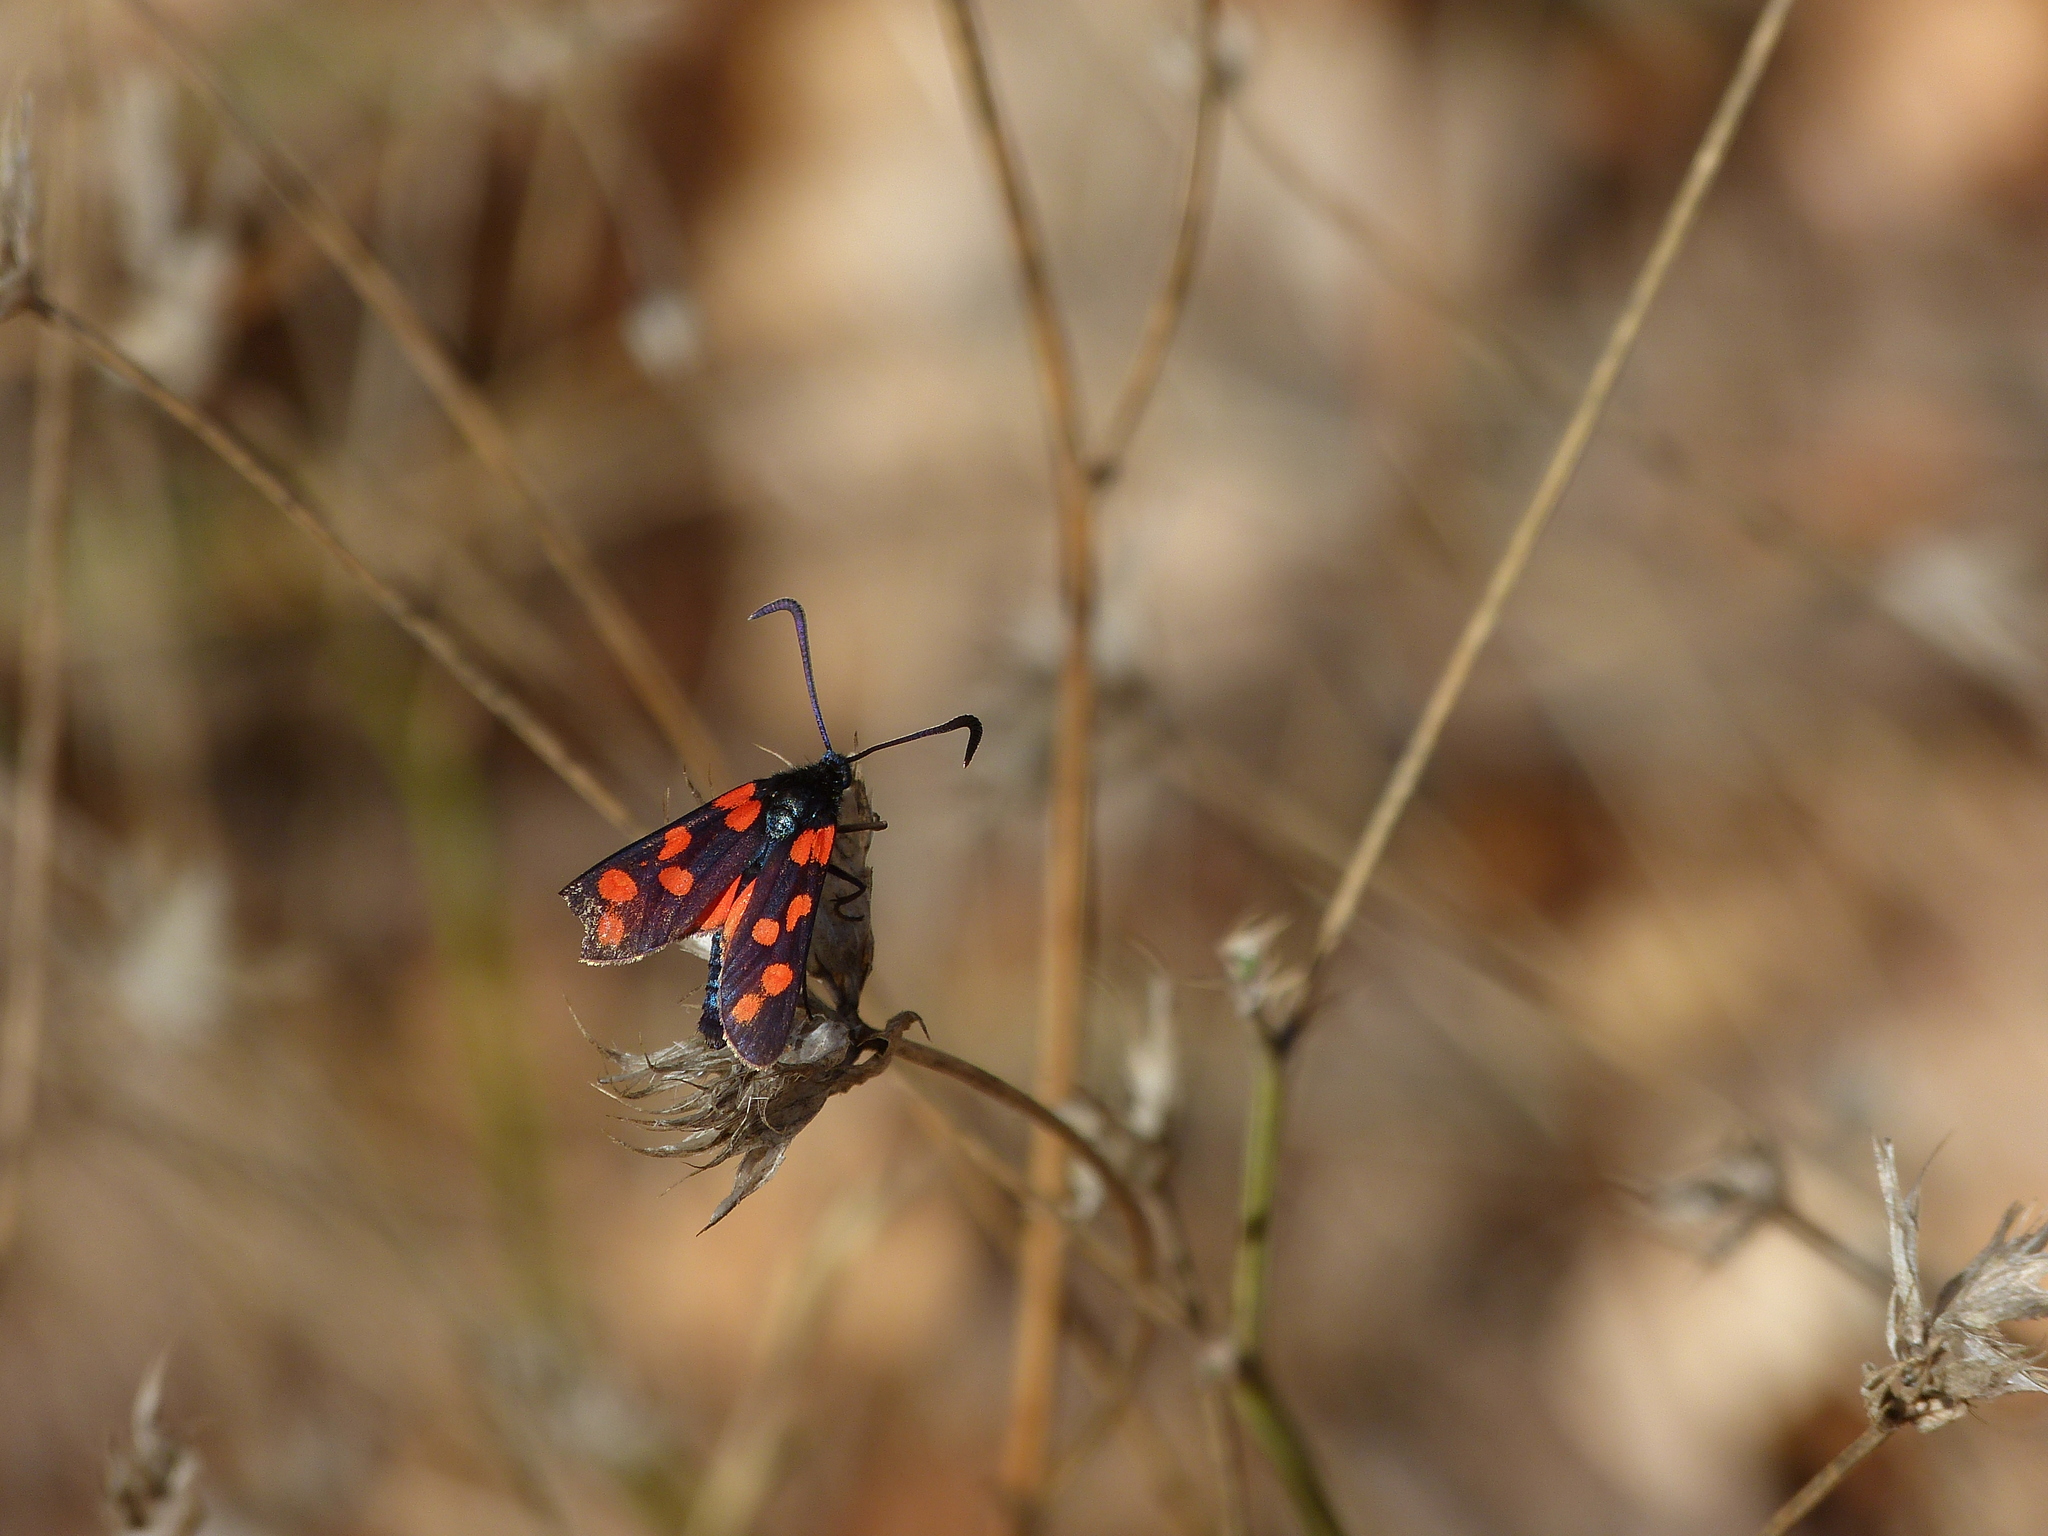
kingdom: Animalia
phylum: Arthropoda
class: Insecta
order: Lepidoptera
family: Zygaenidae
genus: Zygaena
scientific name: Zygaena transalpina
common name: Southern six spot burnet
